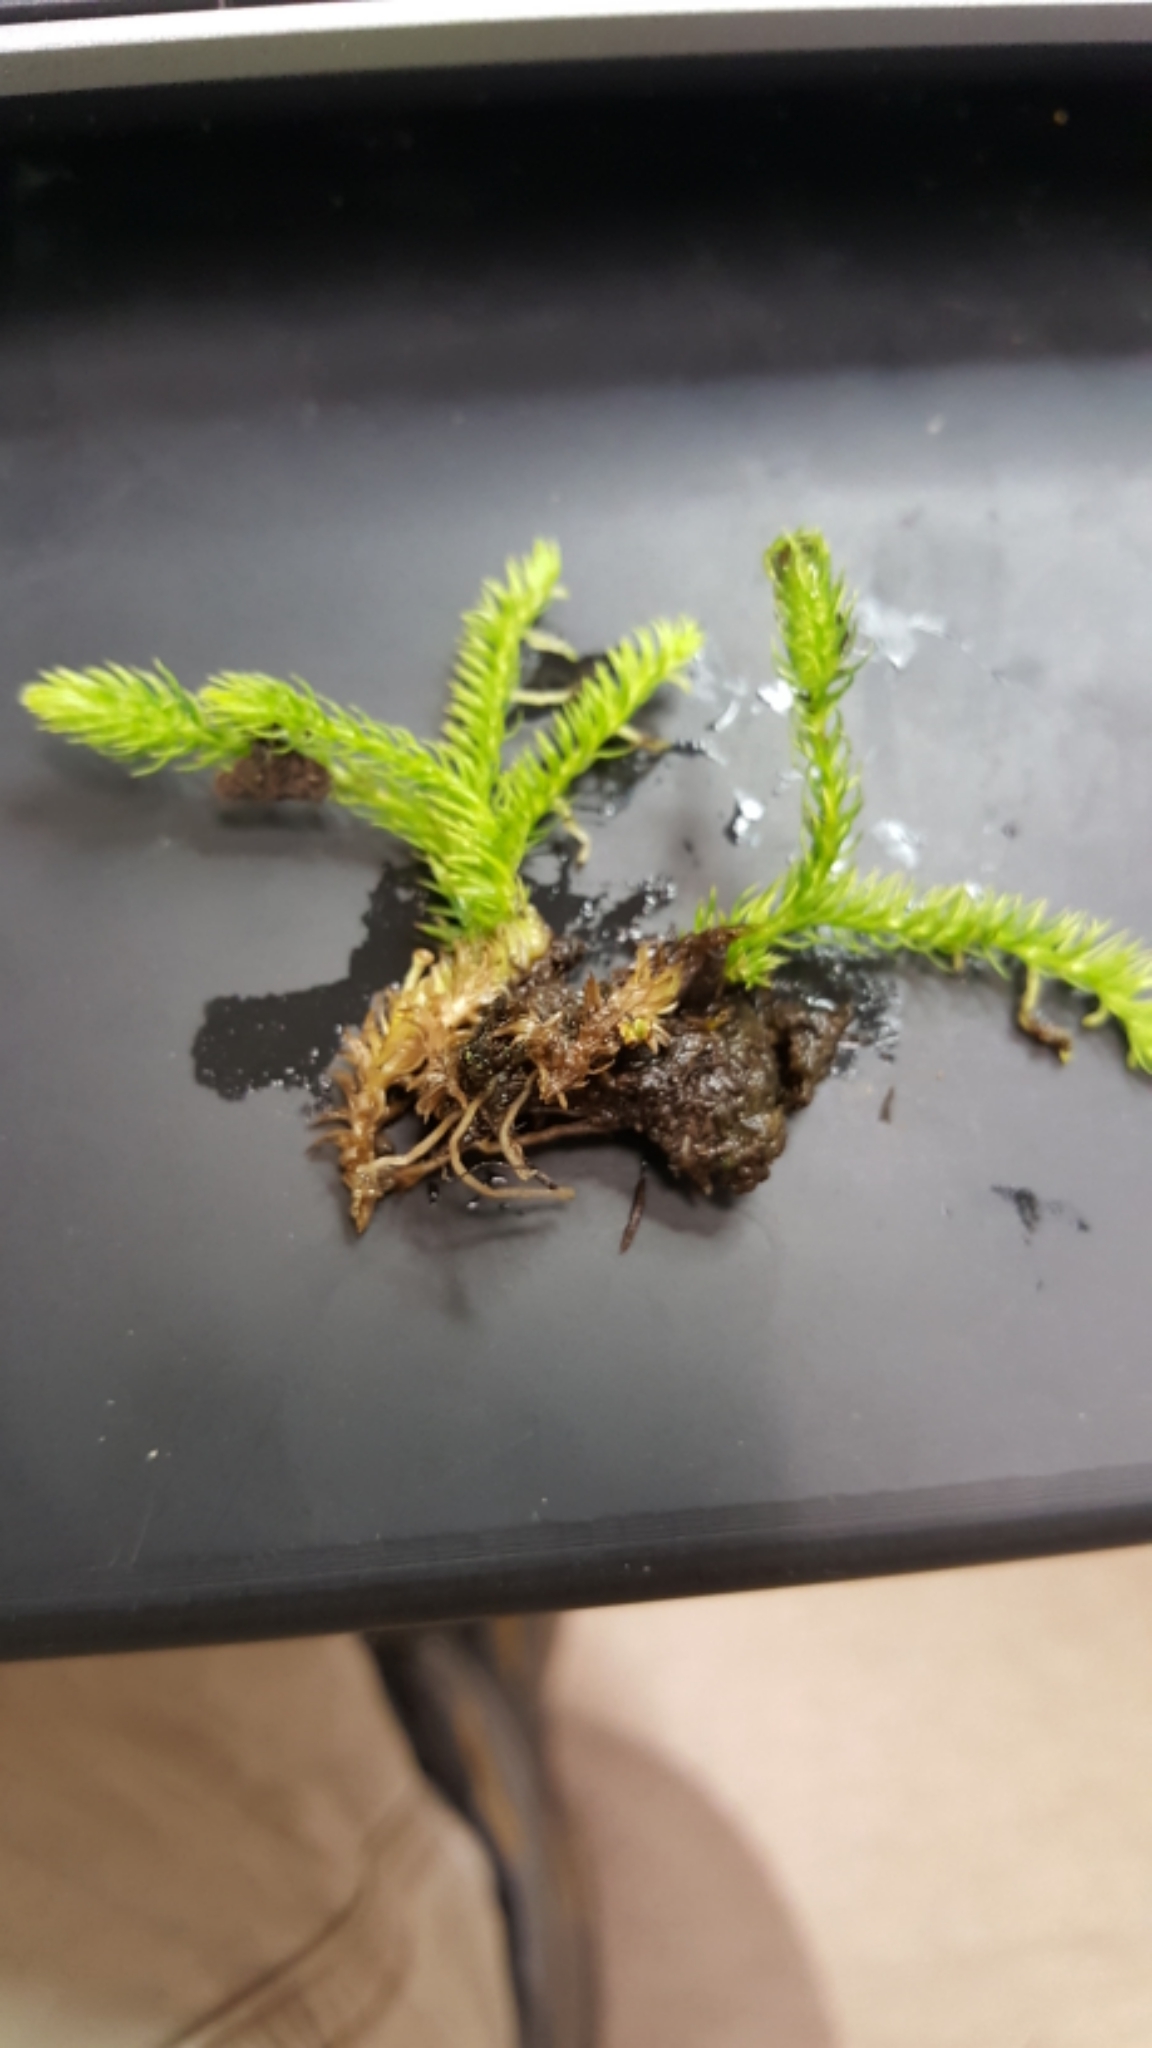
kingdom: Plantae
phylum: Tracheophyta
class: Lycopodiopsida
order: Lycopodiales
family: Lycopodiaceae
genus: Lycopodiella
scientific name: Lycopodiella inundata
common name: Marsh clubmoss
